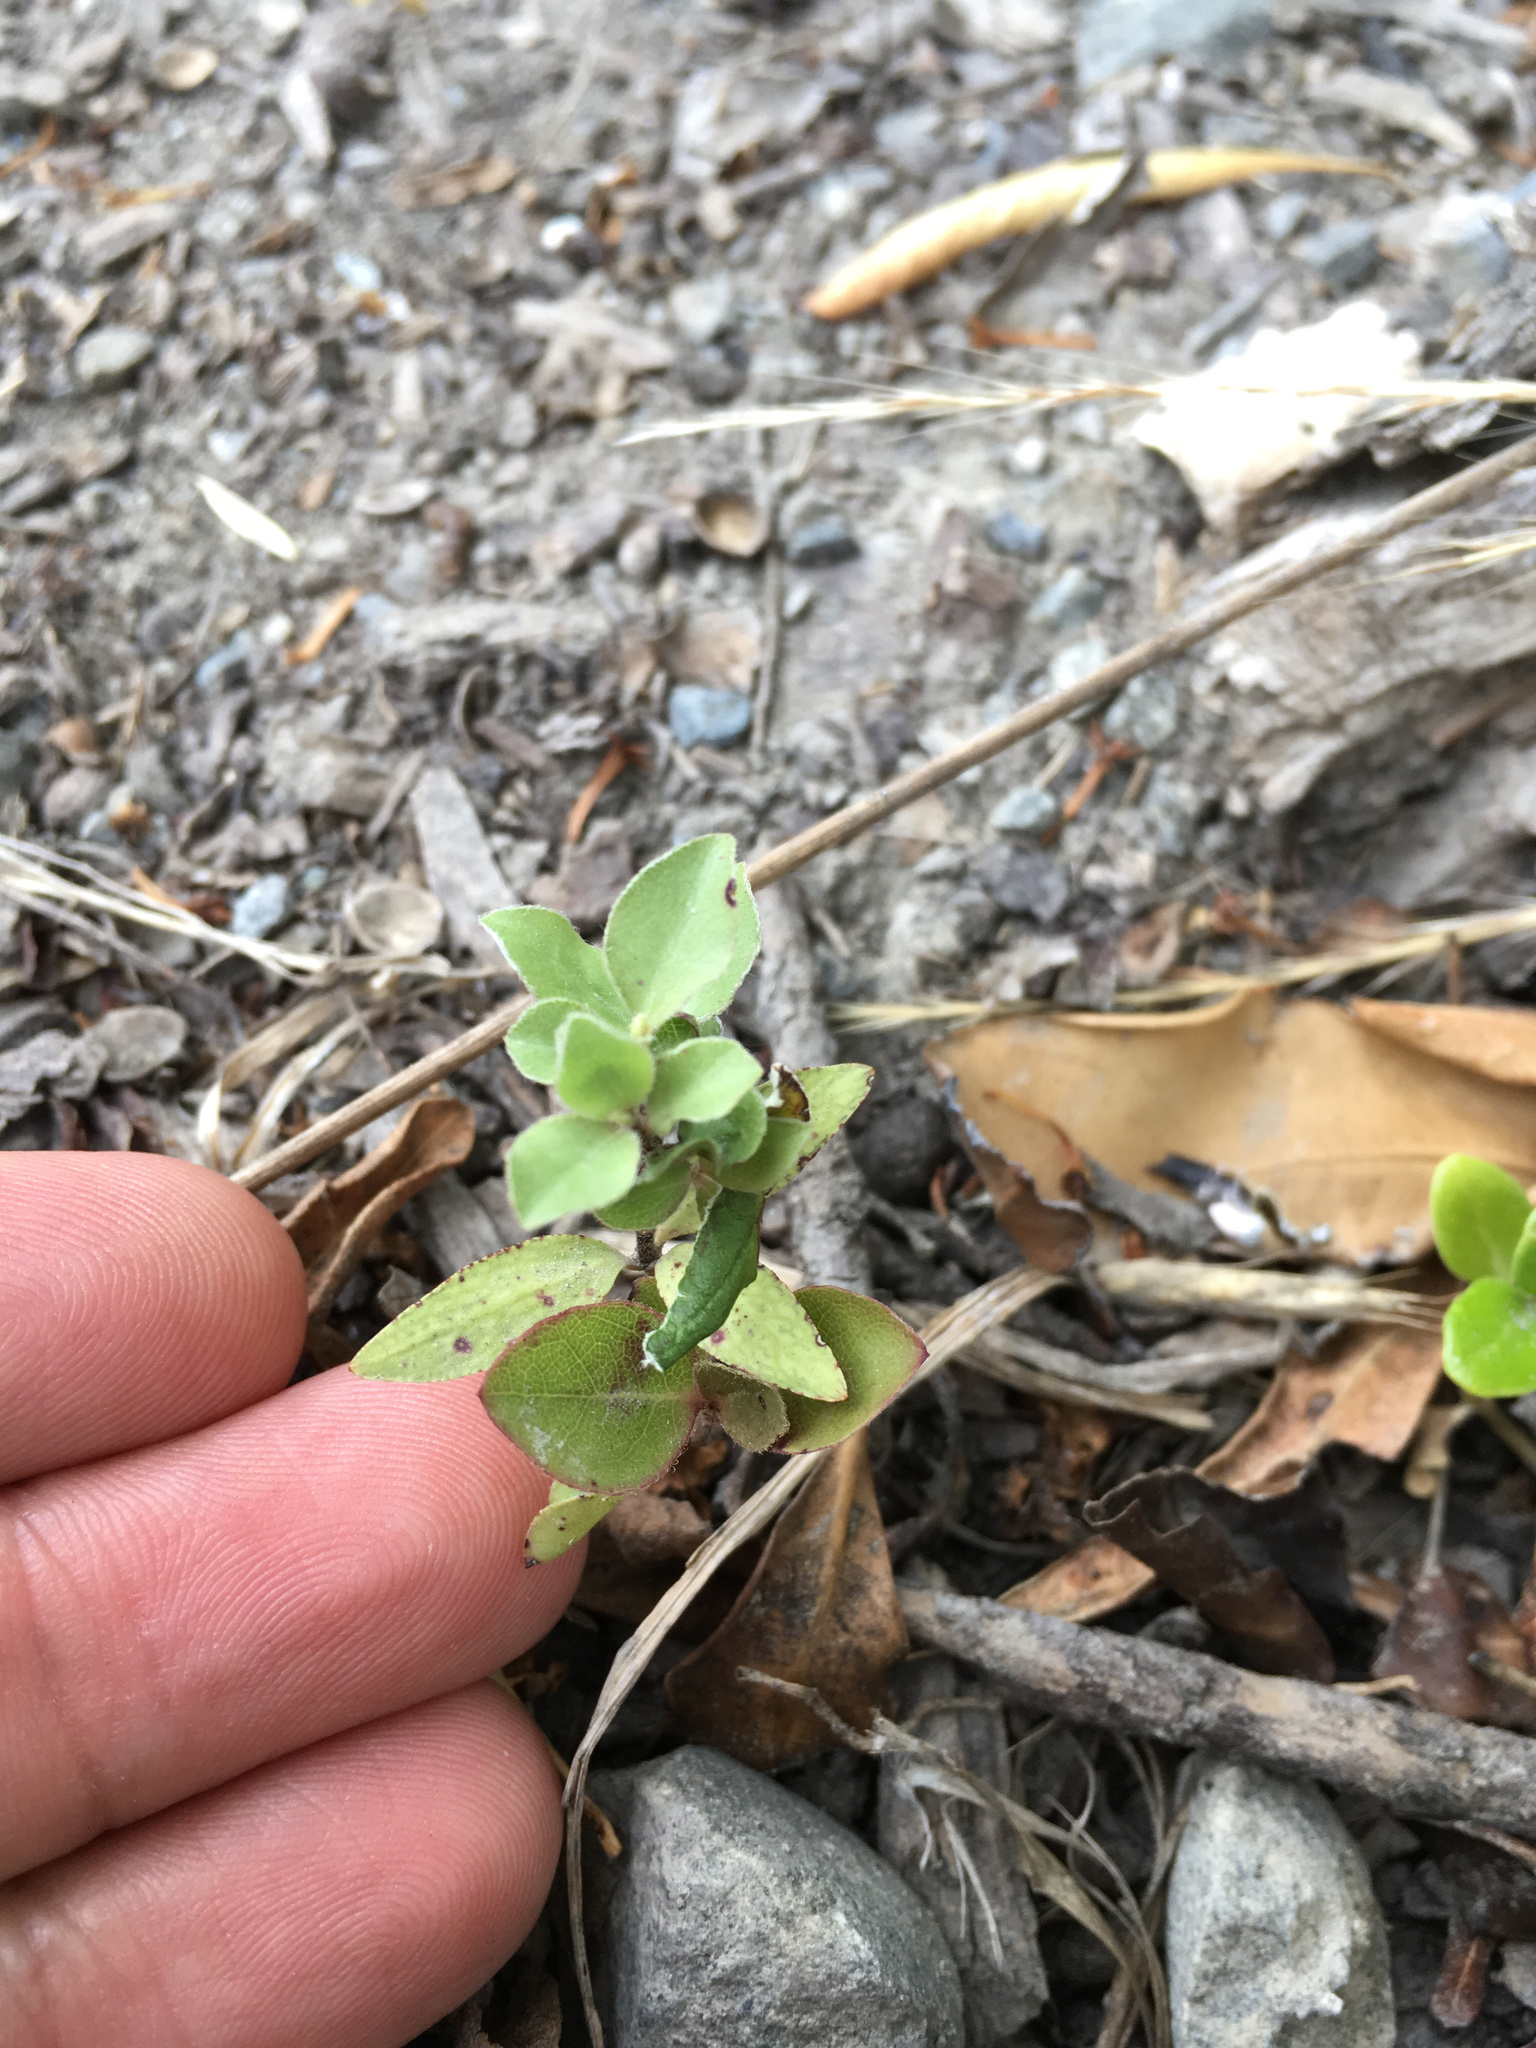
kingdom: Plantae
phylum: Tracheophyta
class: Magnoliopsida
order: Apiales
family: Pittosporaceae
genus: Pittosporum
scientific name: Pittosporum tenuifolium
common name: Kohuhu
